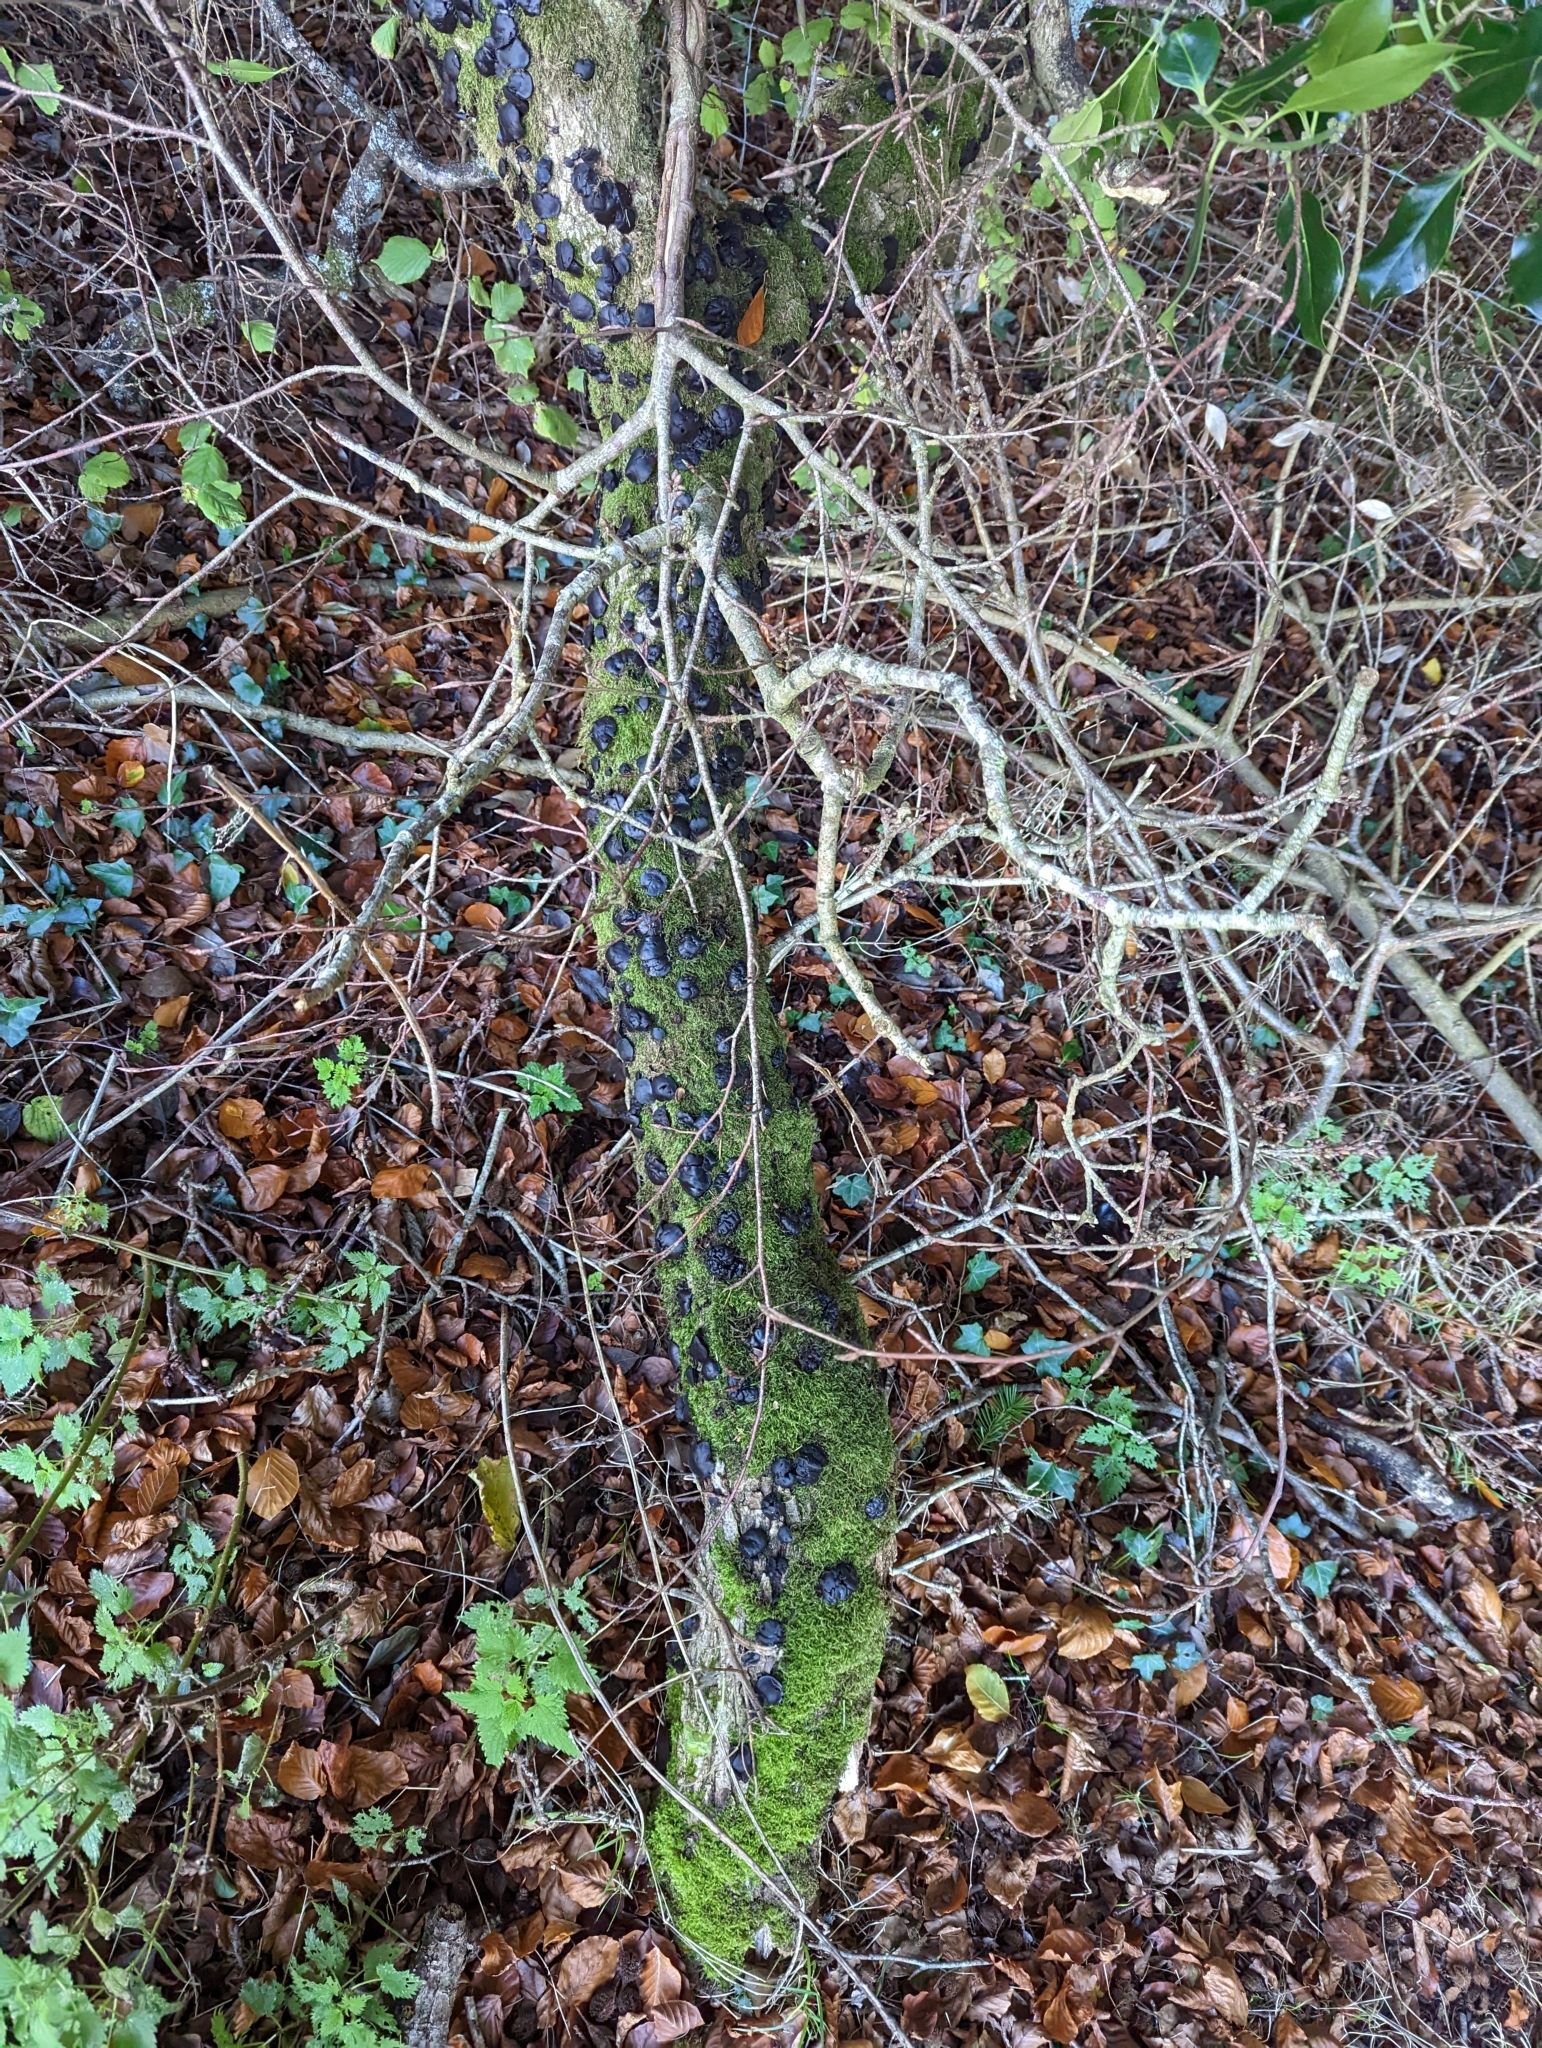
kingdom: Fungi
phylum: Ascomycota
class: Leotiomycetes
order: Phacidiales
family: Phacidiaceae
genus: Bulgaria
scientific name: Bulgaria inquinans
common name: Black bulgar
